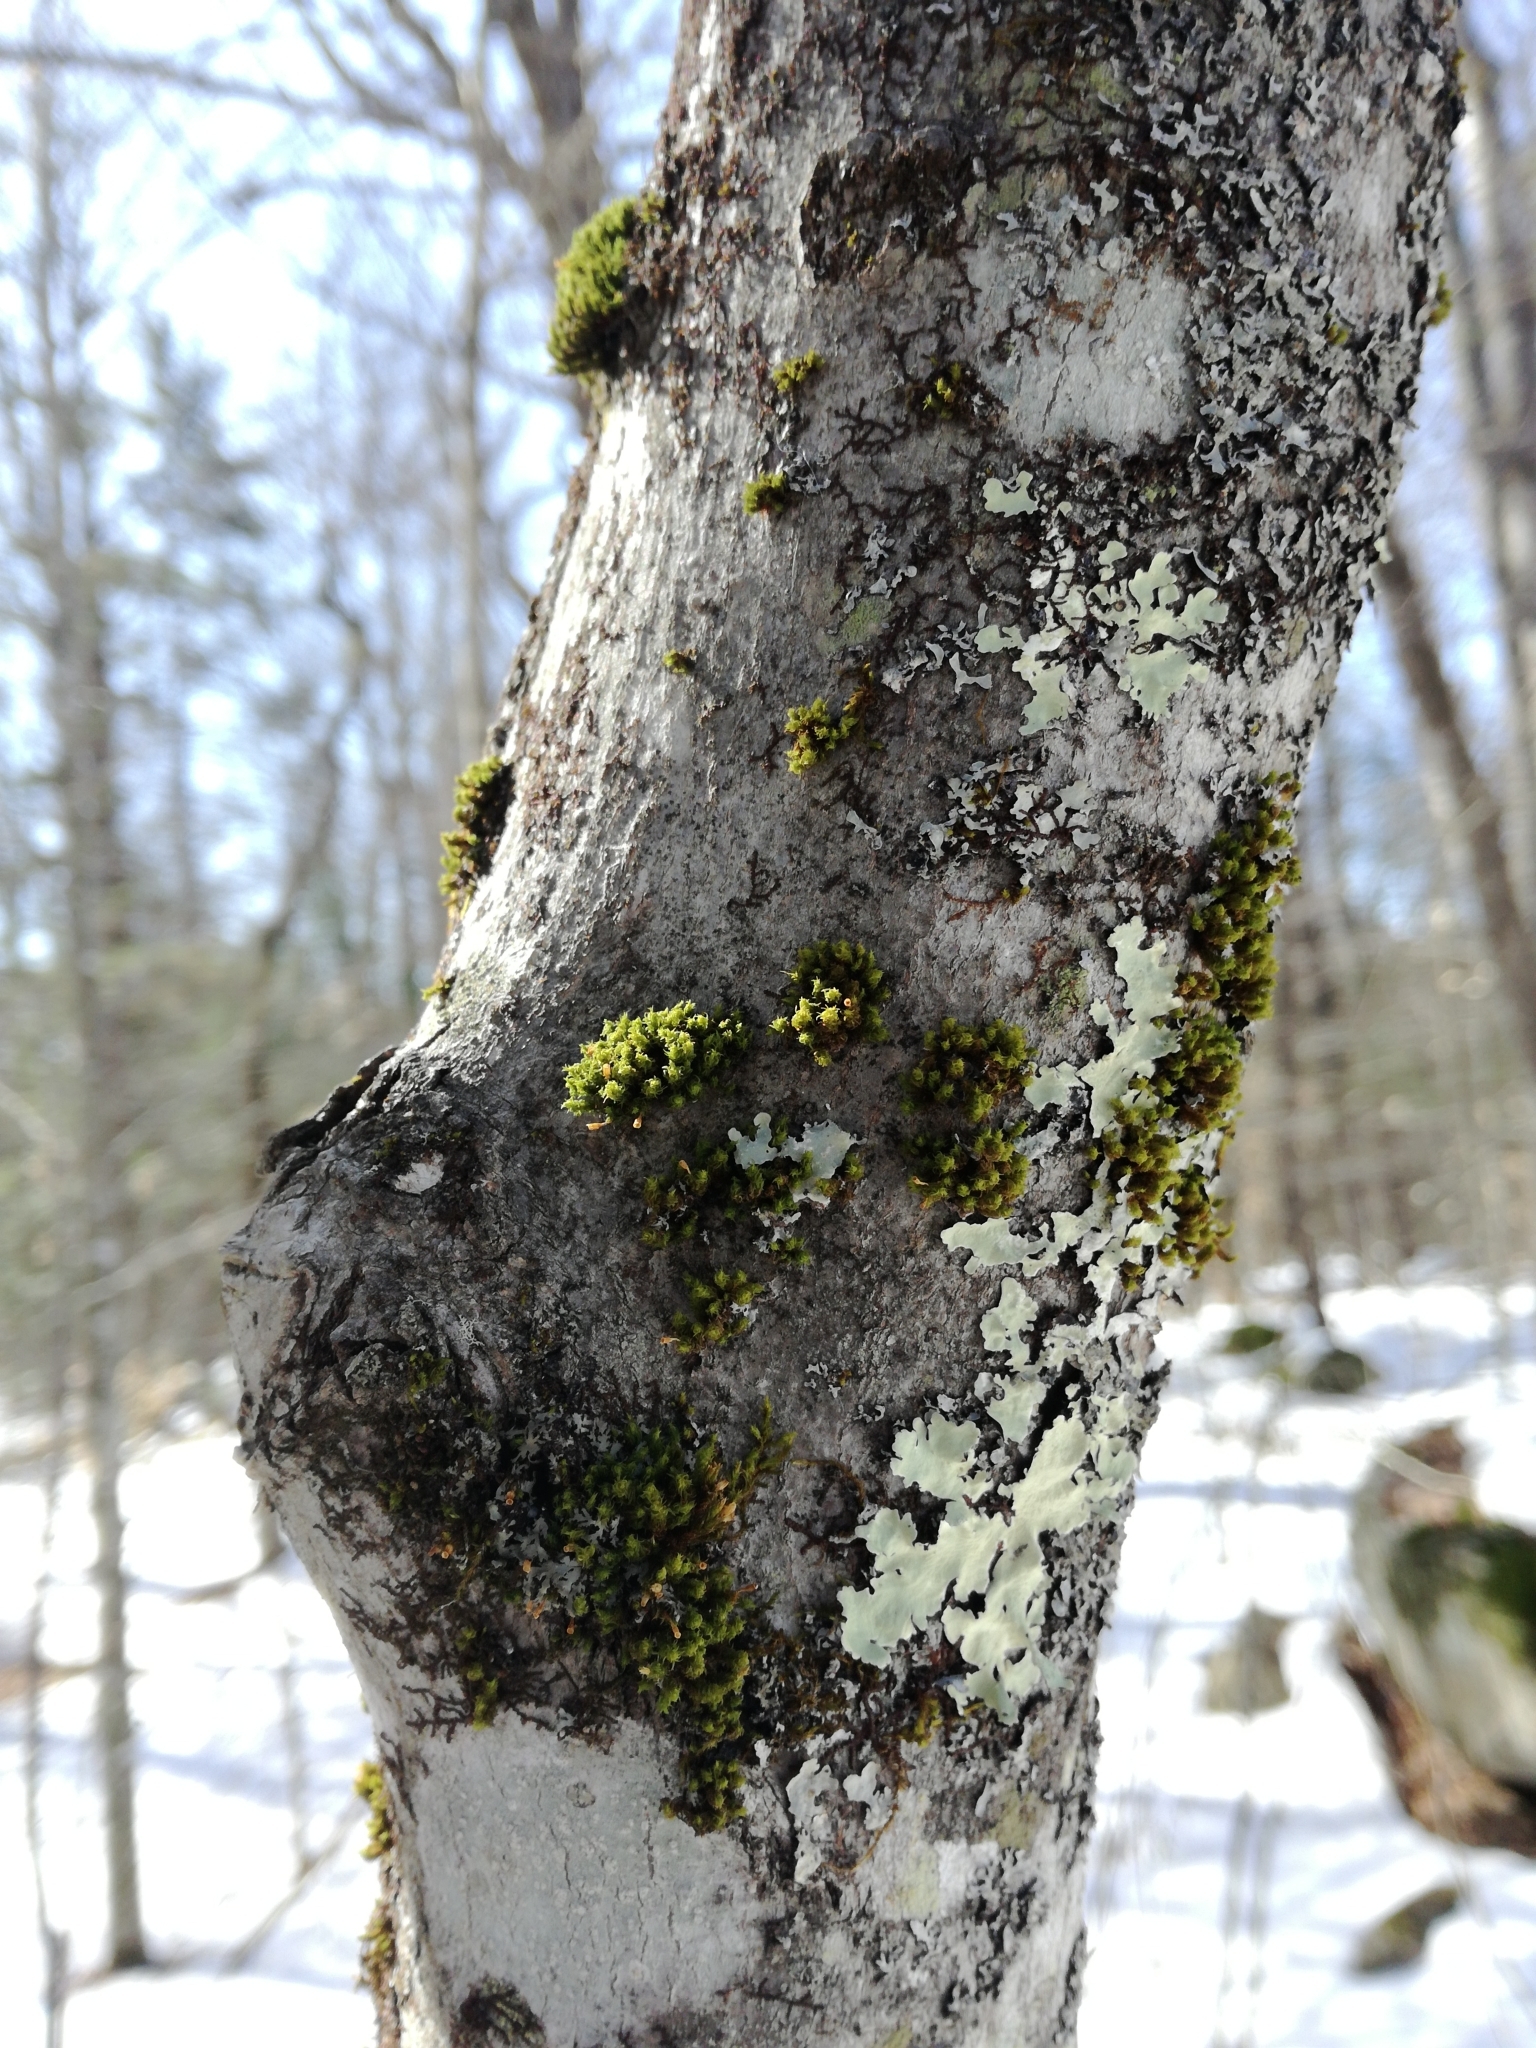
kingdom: Plantae
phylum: Bryophyta
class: Bryopsida
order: Orthotrichales
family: Orthotrichaceae
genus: Ulota
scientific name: Ulota crispa
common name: Crisped pincushion moss
